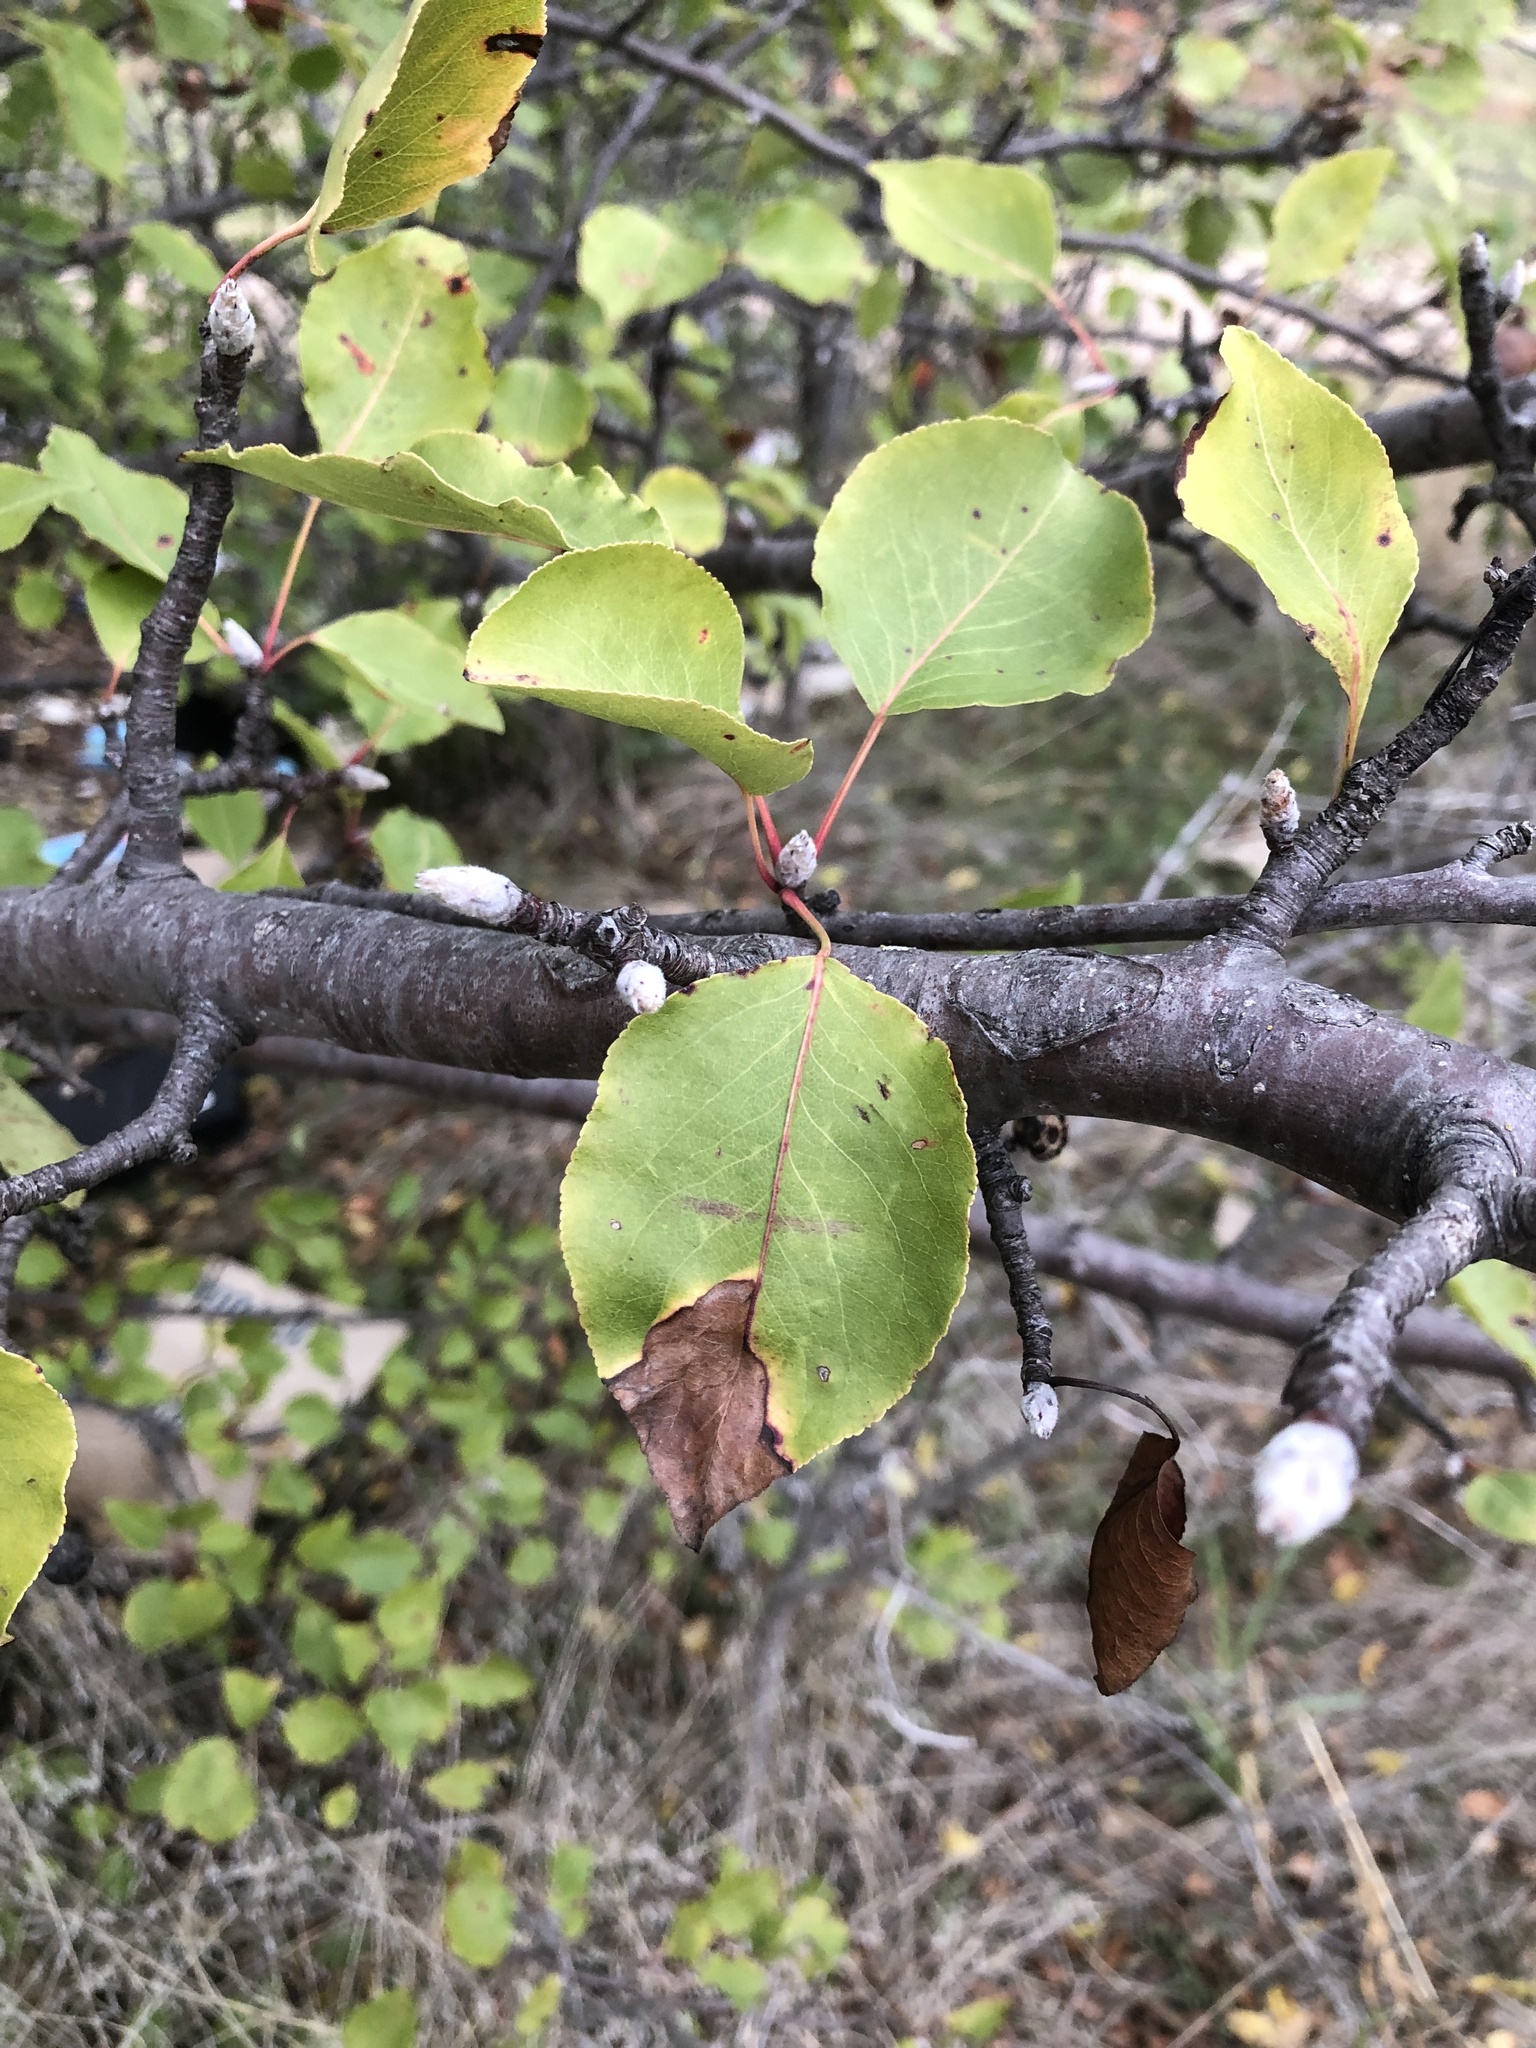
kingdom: Plantae
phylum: Tracheophyta
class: Magnoliopsida
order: Rosales
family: Rosaceae
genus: Pyrus
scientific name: Pyrus calleryana
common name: Callery pear
